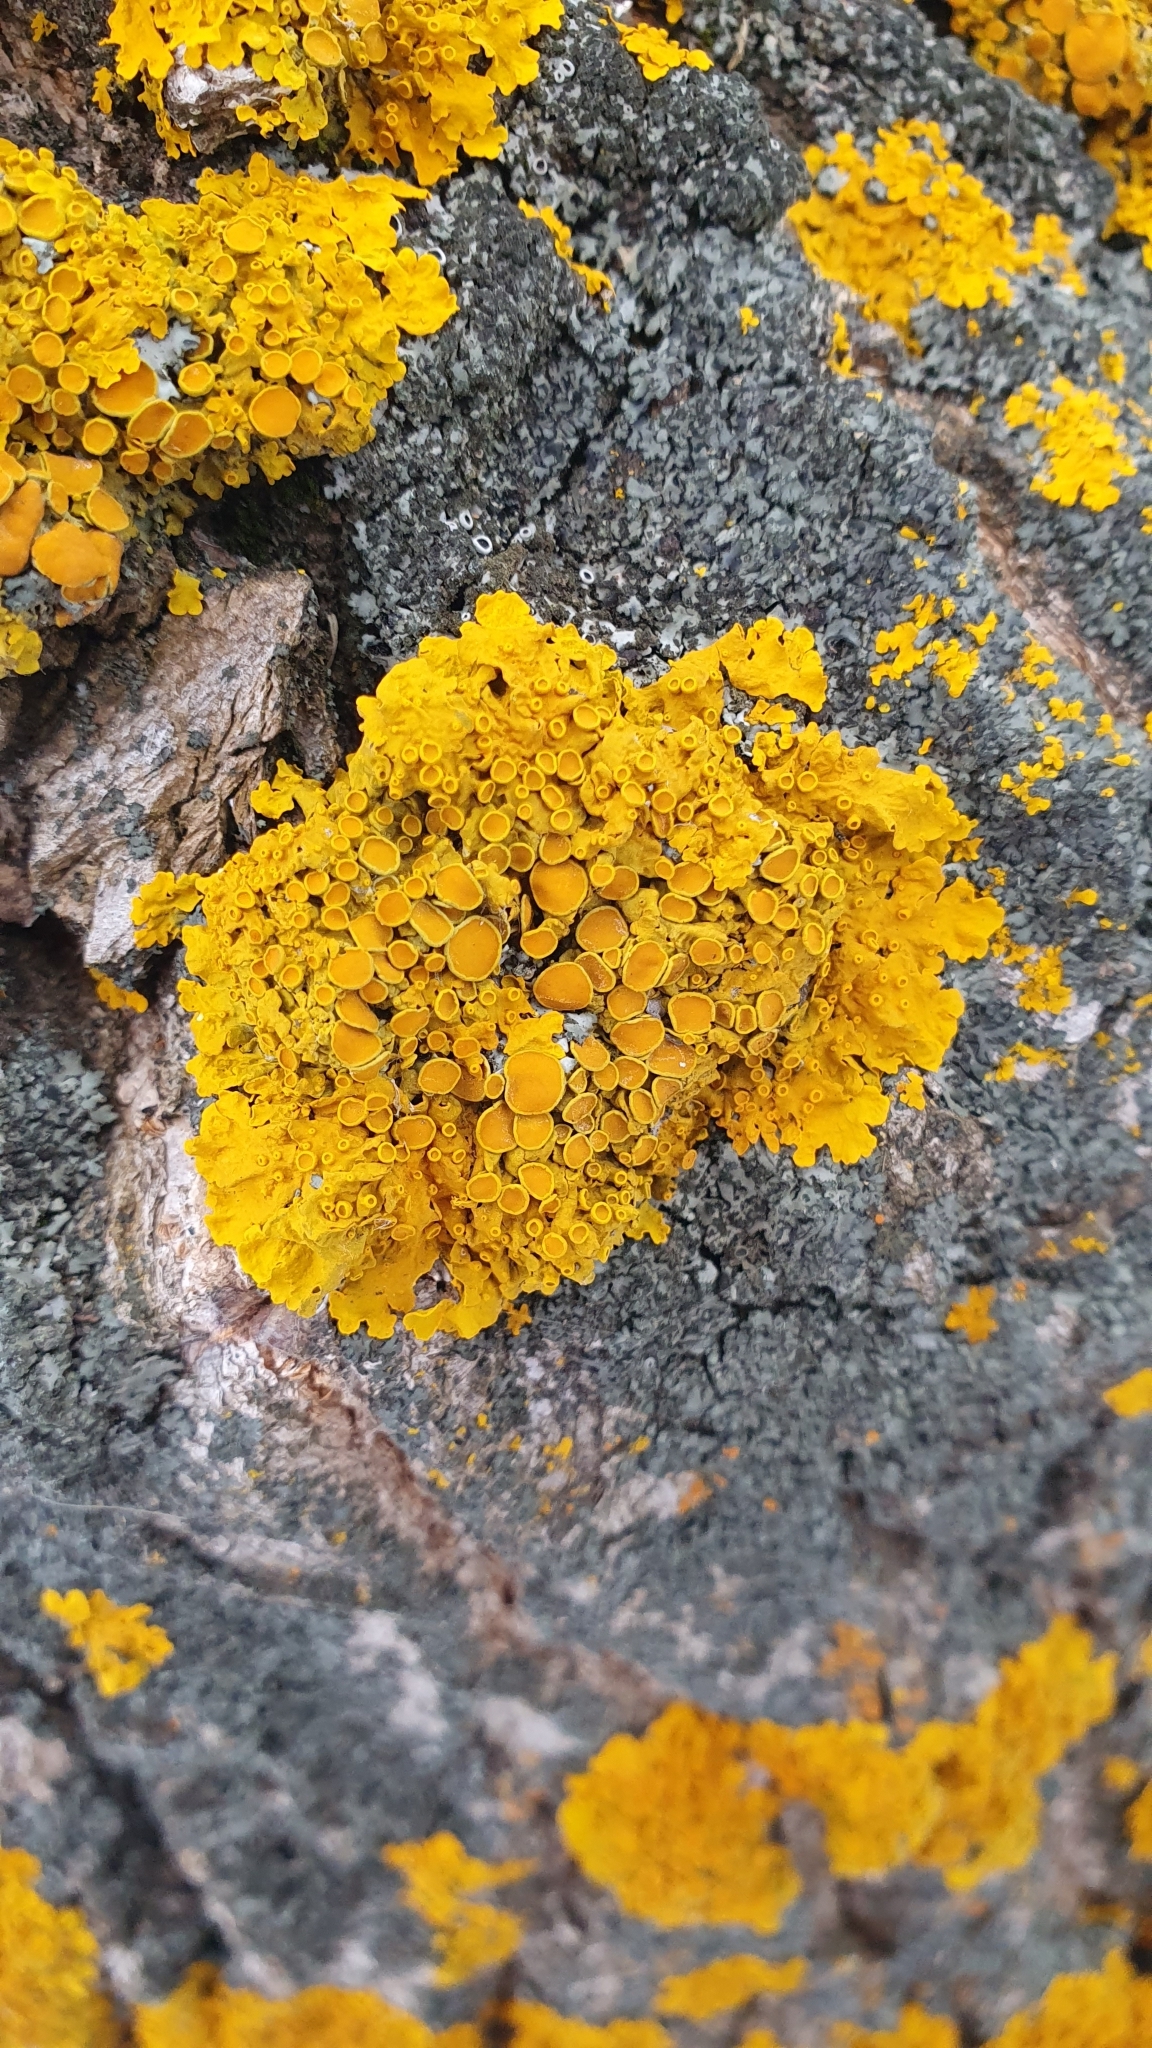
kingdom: Fungi
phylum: Ascomycota
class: Lecanoromycetes
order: Teloschistales
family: Teloschistaceae
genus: Xanthoria
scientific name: Xanthoria parietina
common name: Common orange lichen
